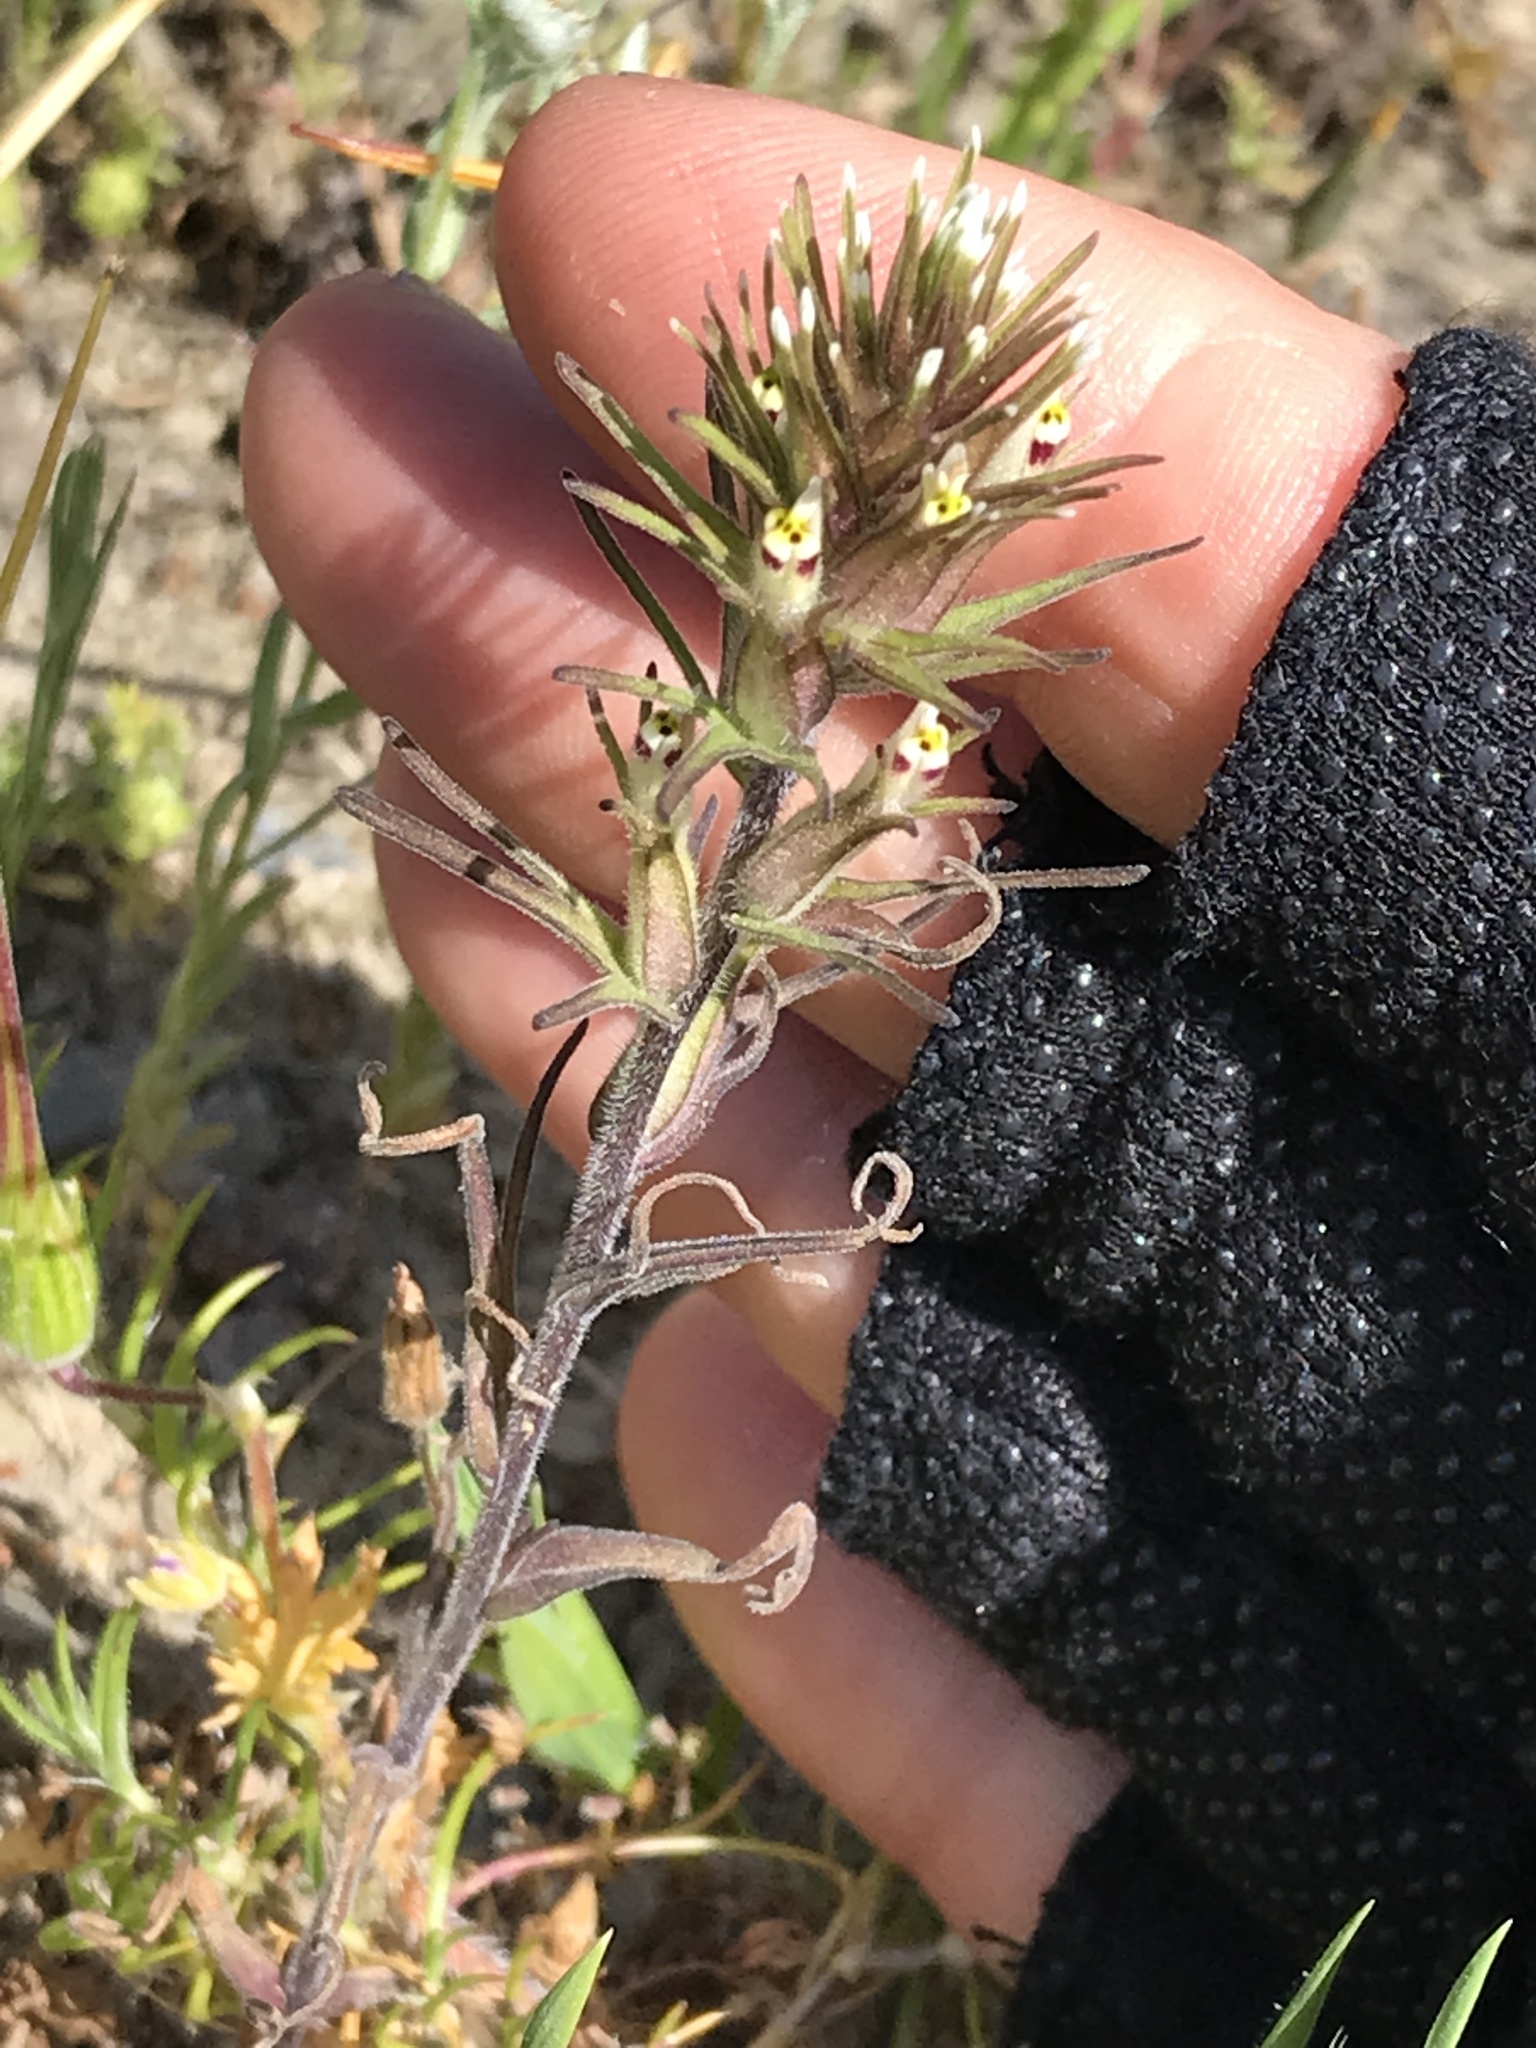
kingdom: Plantae
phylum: Tracheophyta
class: Magnoliopsida
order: Lamiales
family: Orobanchaceae
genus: Castilleja
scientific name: Castilleja attenuata
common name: Valley tassels
